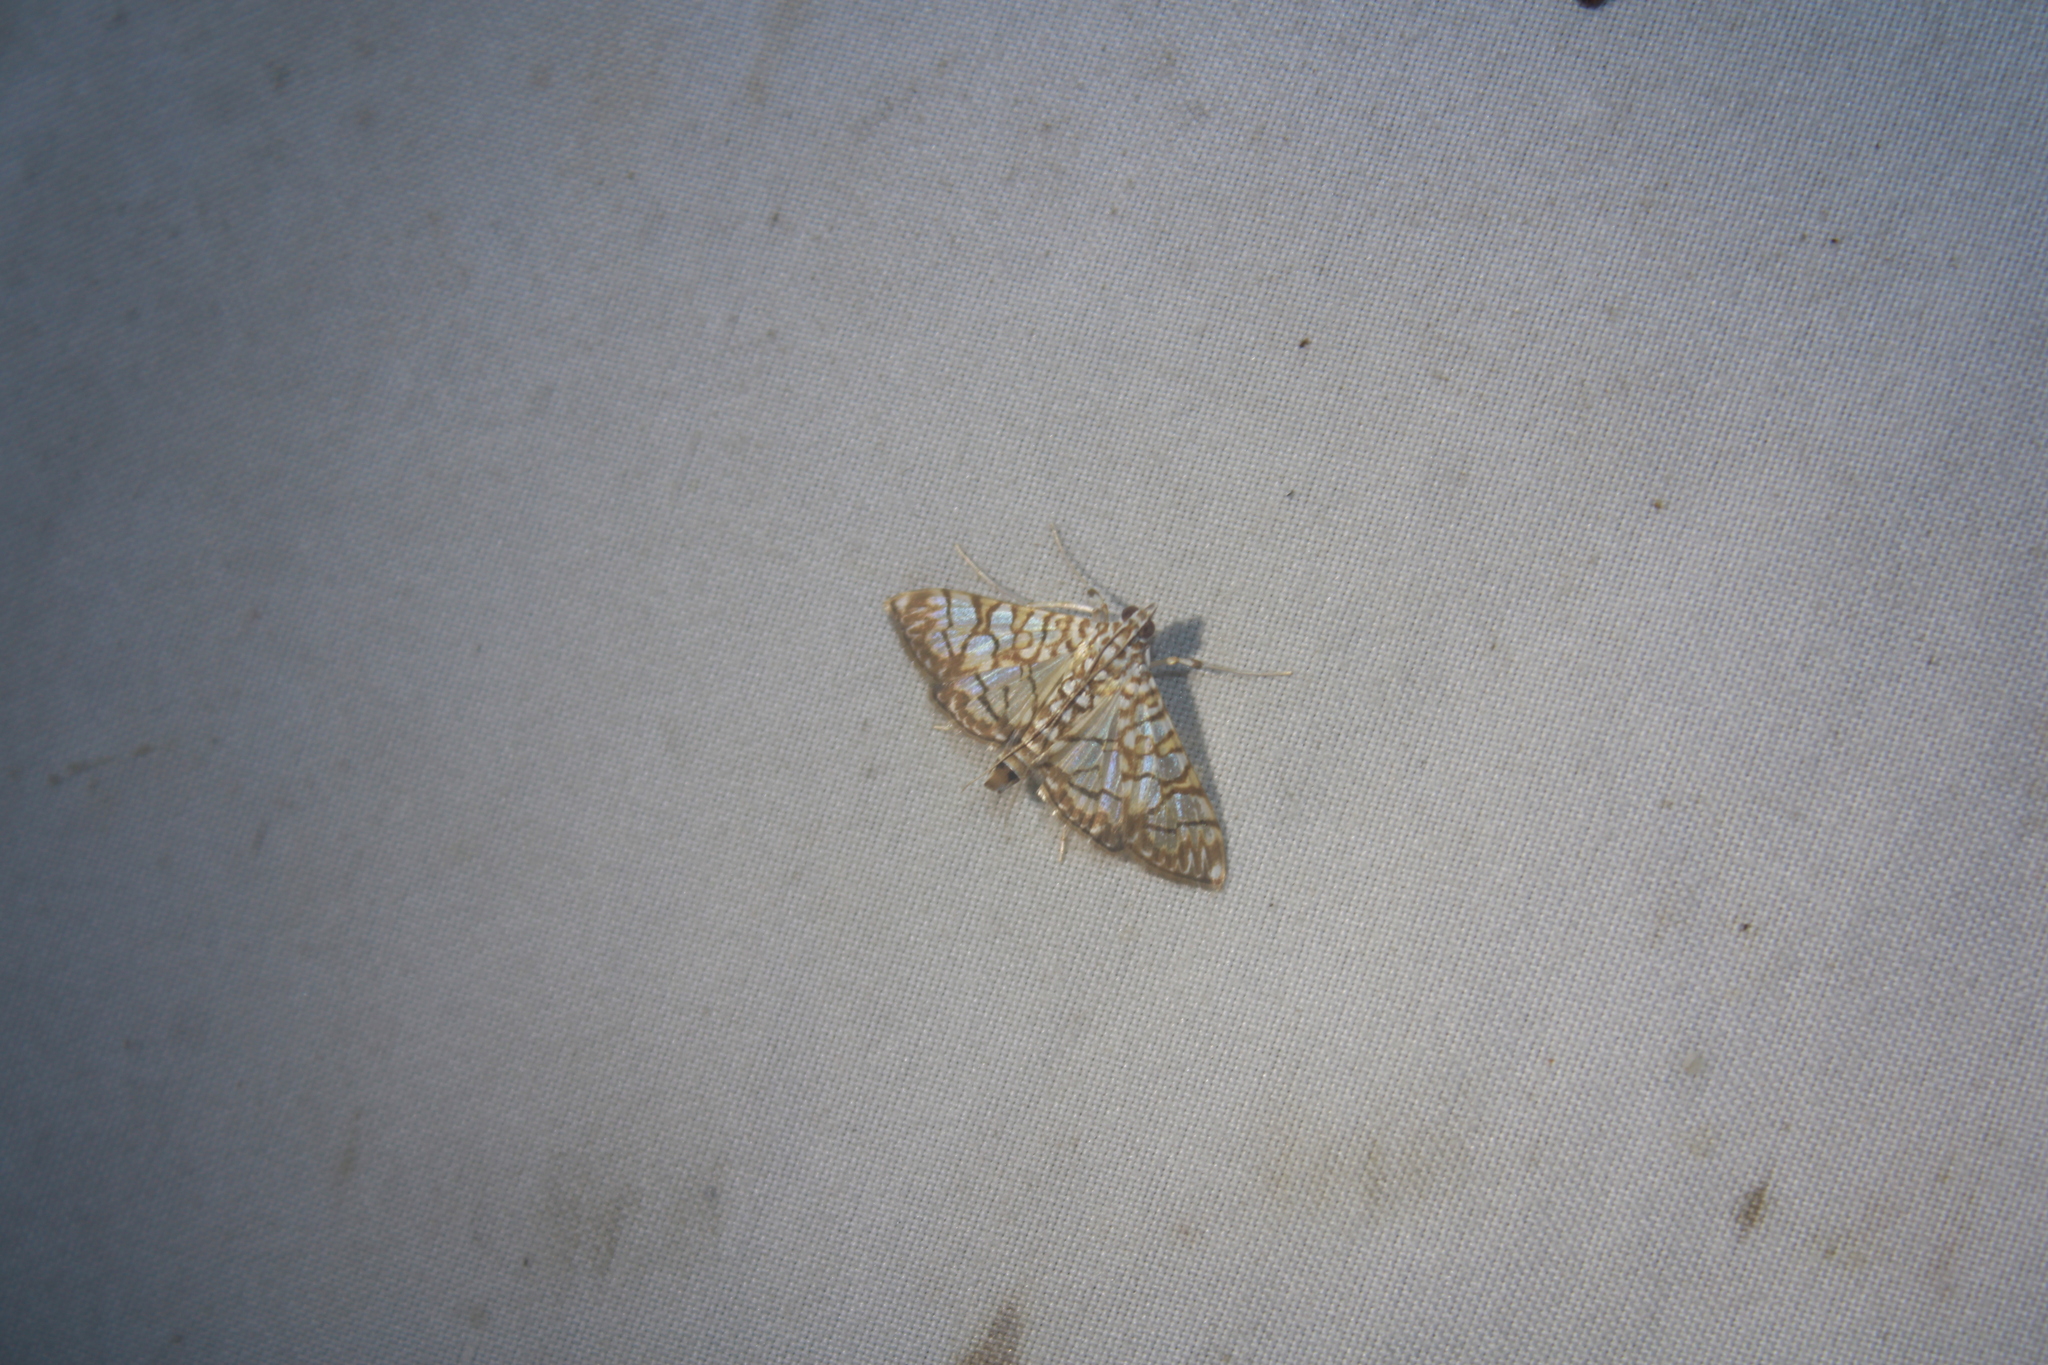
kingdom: Animalia
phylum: Arthropoda
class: Insecta
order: Lepidoptera
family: Crambidae
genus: Synclera
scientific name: Synclera traducalis
